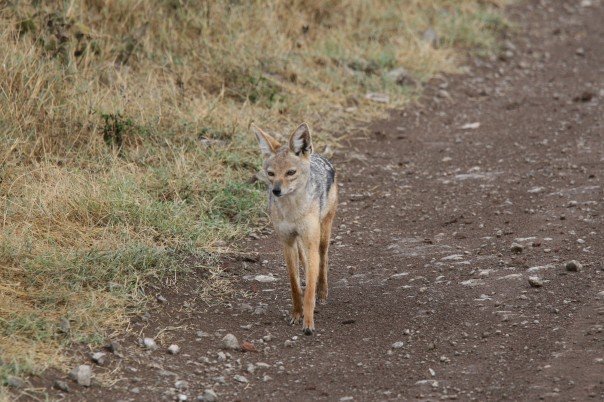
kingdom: Animalia
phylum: Chordata
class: Mammalia
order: Carnivora
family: Canidae
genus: Lupulella
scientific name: Lupulella
